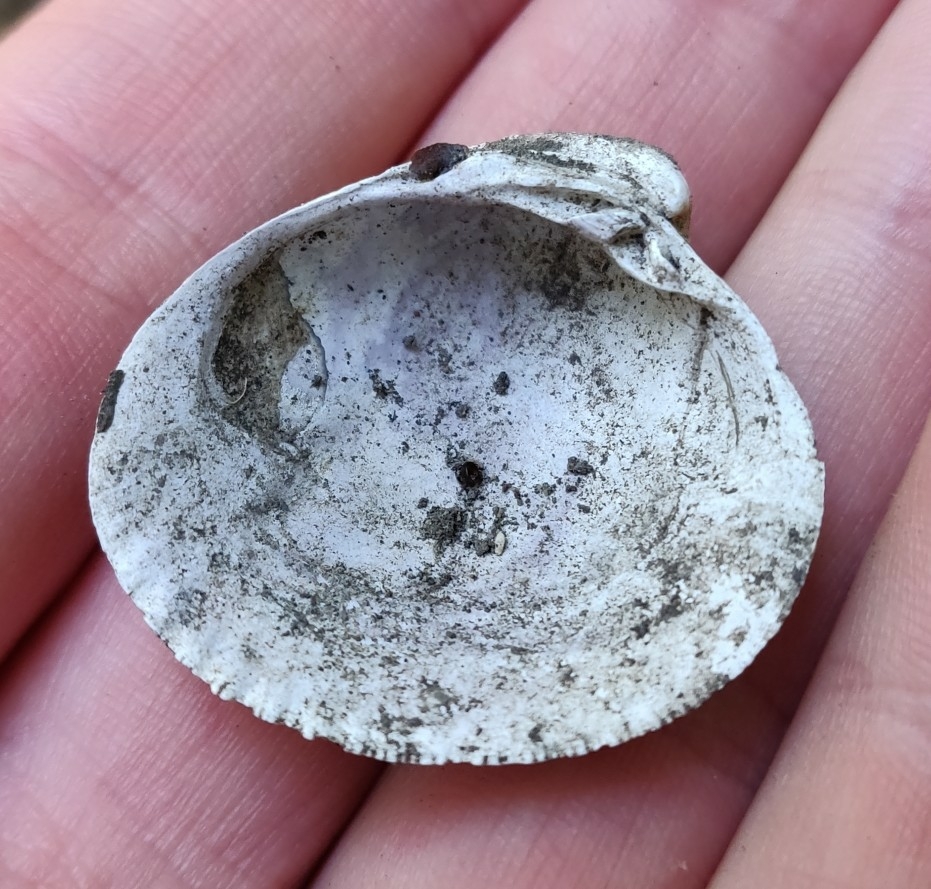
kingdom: Animalia
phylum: Mollusca
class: Bivalvia
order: Venerida
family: Veneridae
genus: Austrovenus
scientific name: Austrovenus stutchburyi
